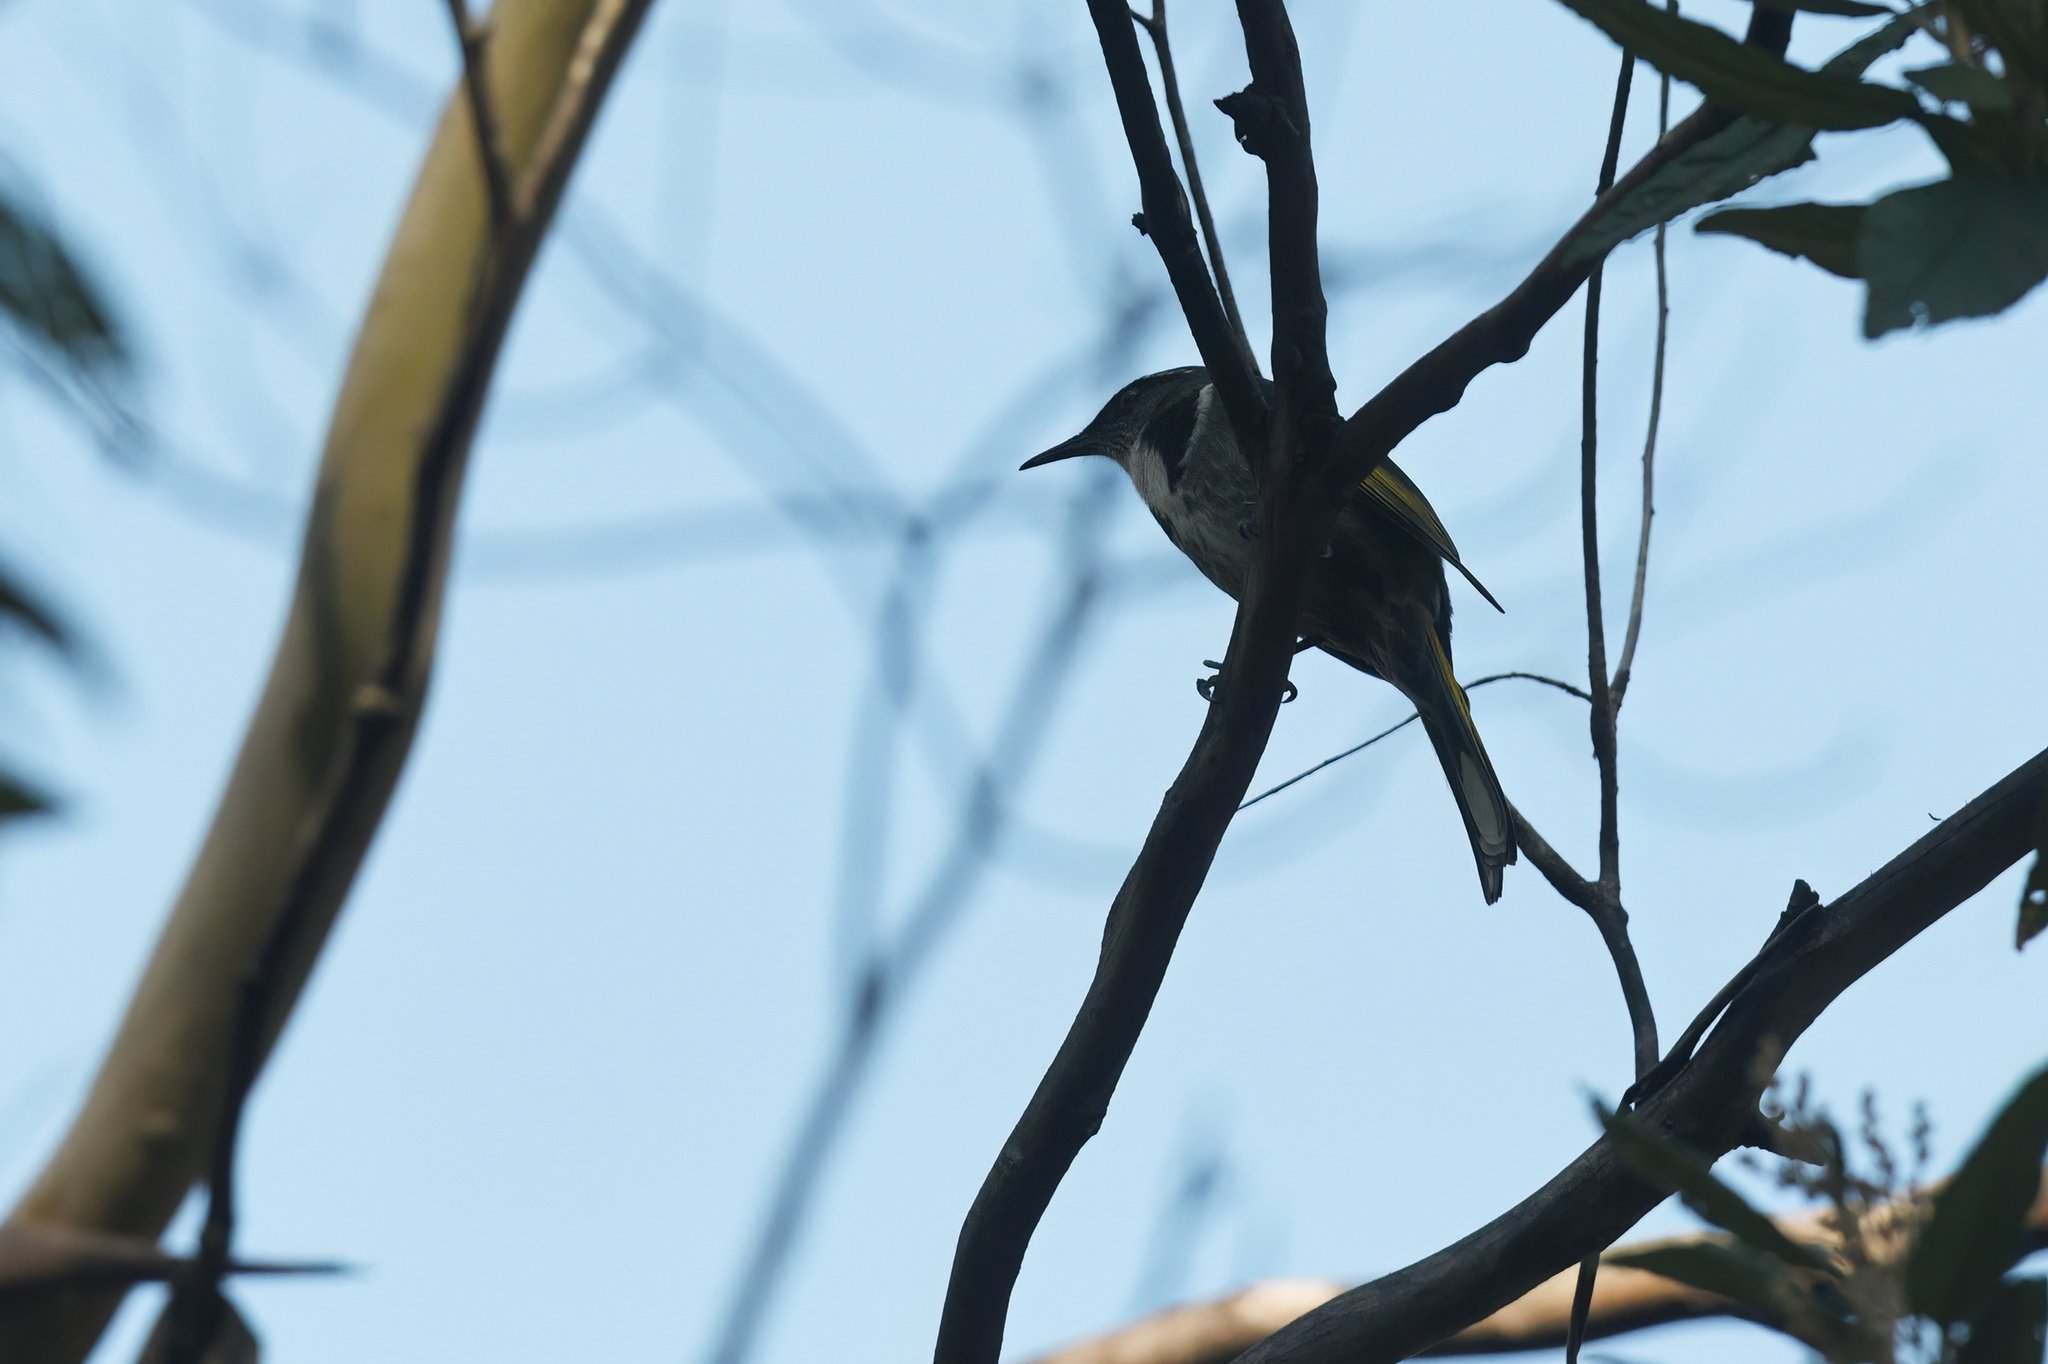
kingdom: Animalia
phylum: Chordata
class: Aves
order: Passeriformes
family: Meliphagidae
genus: Phylidonyris
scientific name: Phylidonyris pyrrhopterus
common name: Crescent honeyeater
